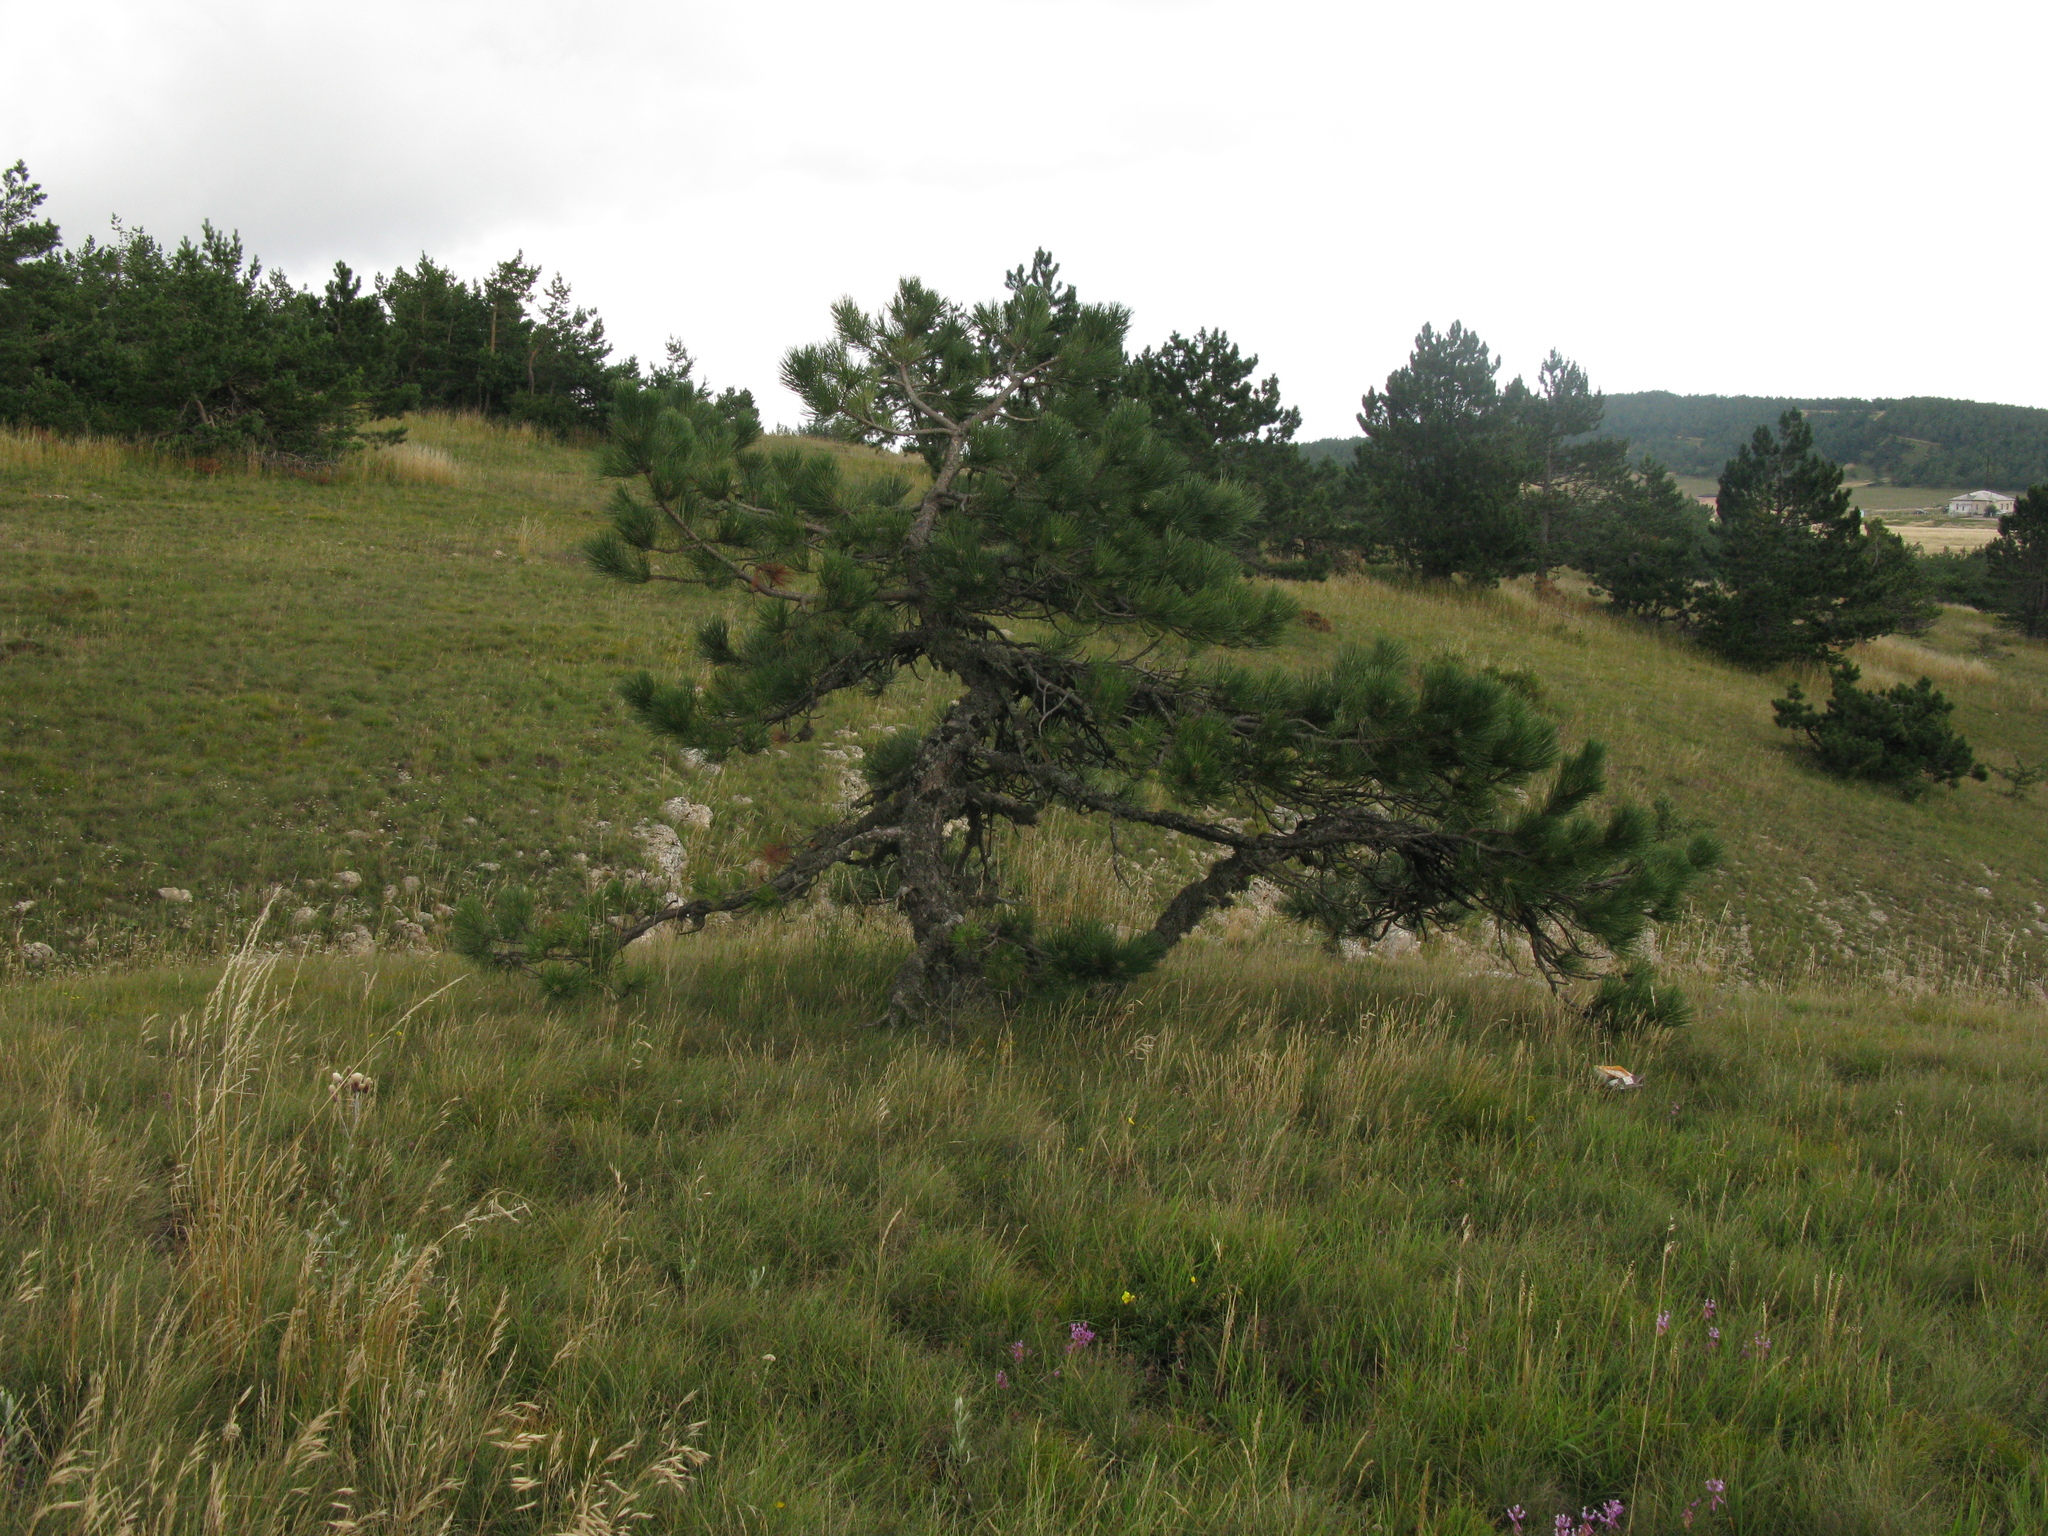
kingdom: Plantae
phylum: Tracheophyta
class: Pinopsida
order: Pinales
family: Pinaceae
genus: Pinus
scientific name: Pinus nigra
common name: Austrian pine
